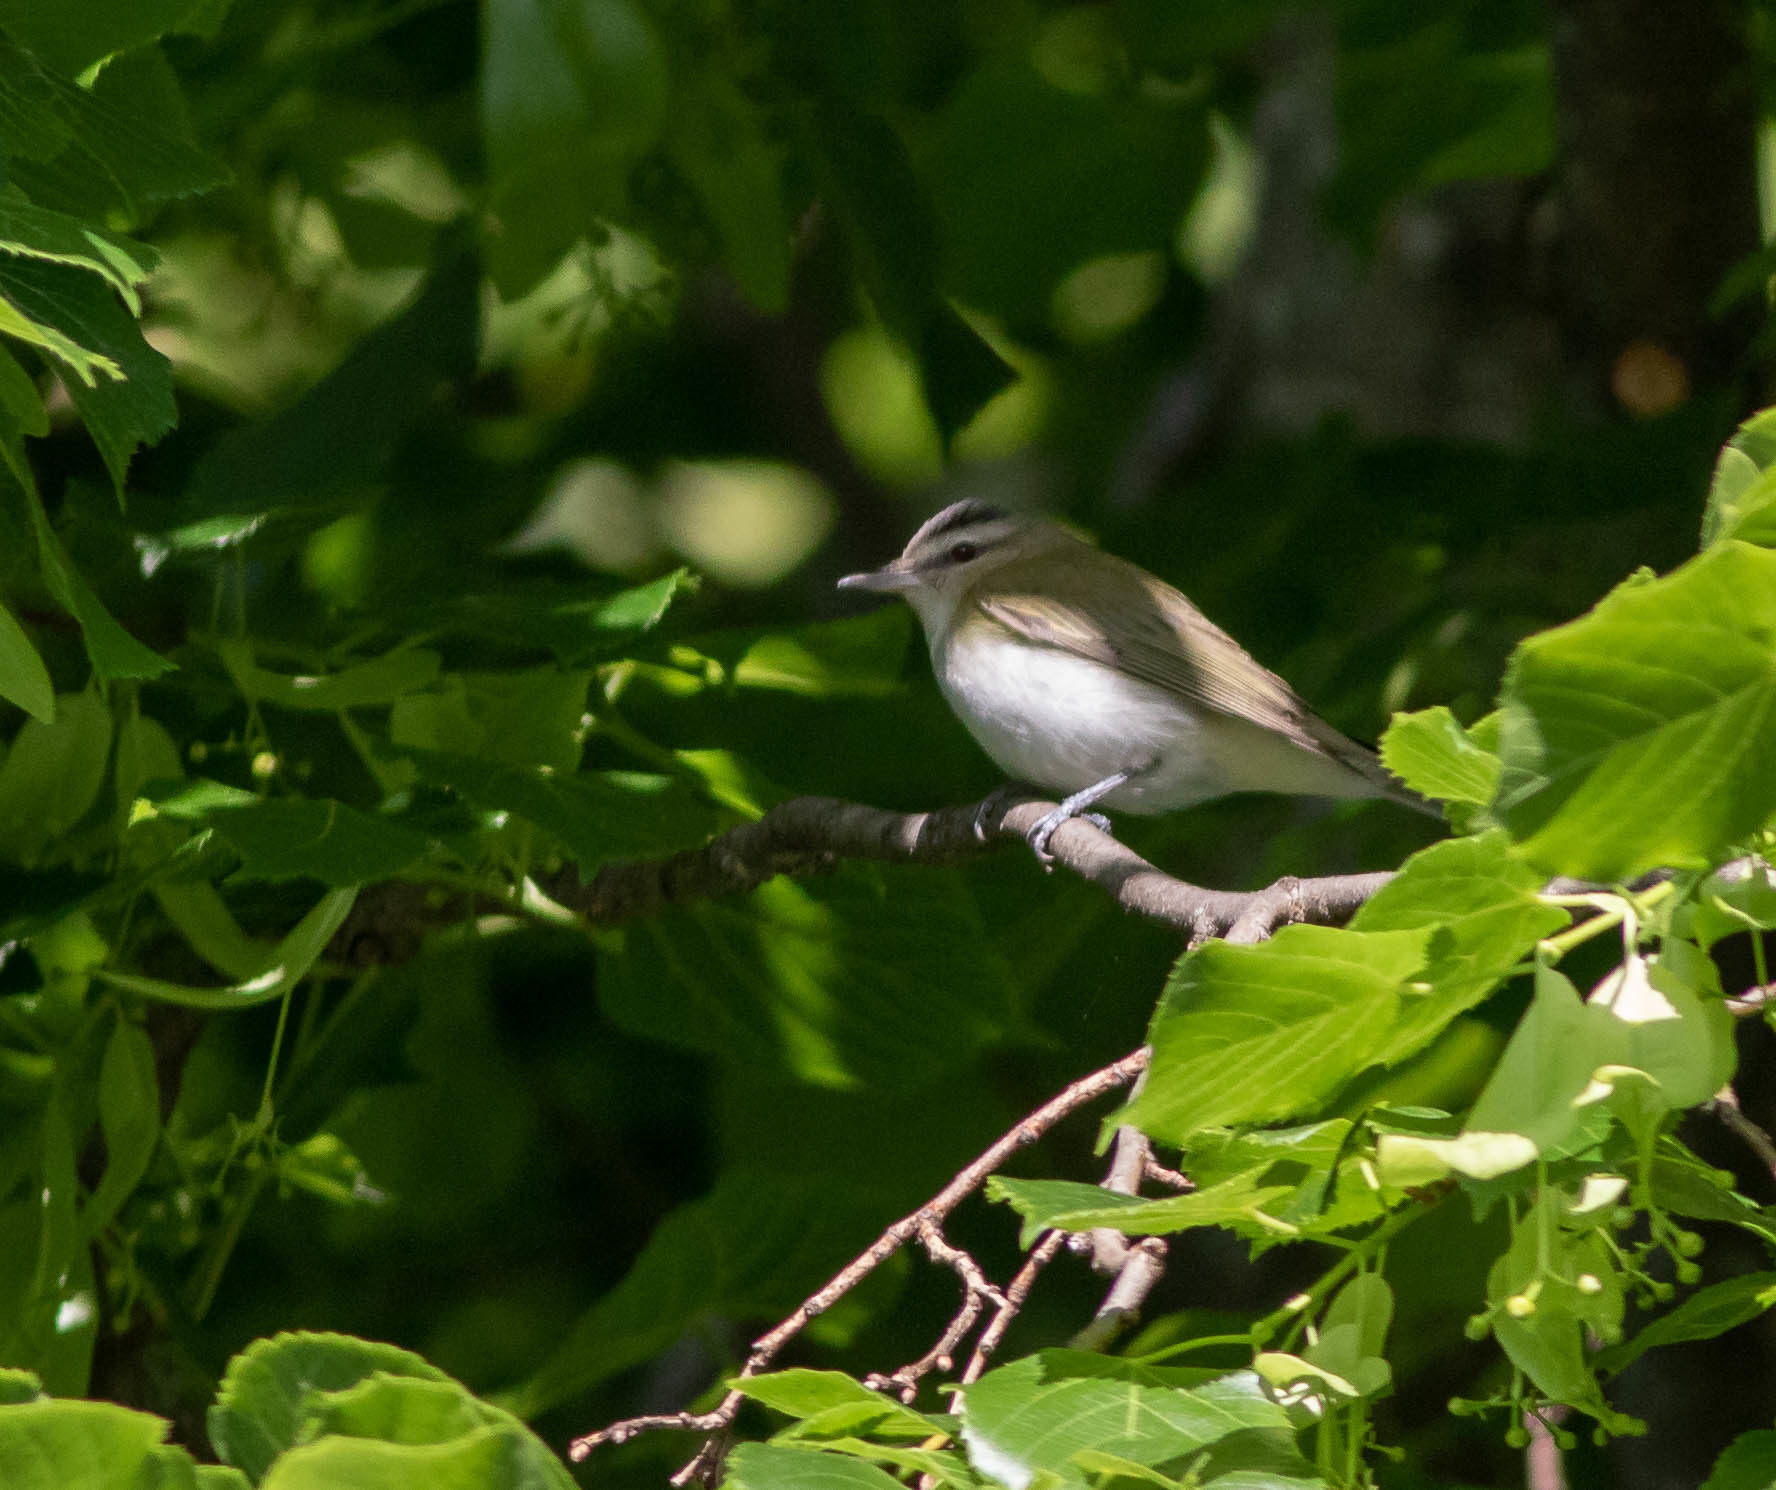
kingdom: Animalia
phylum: Chordata
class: Aves
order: Passeriformes
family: Vireonidae
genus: Vireo
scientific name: Vireo olivaceus
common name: Red-eyed vireo
